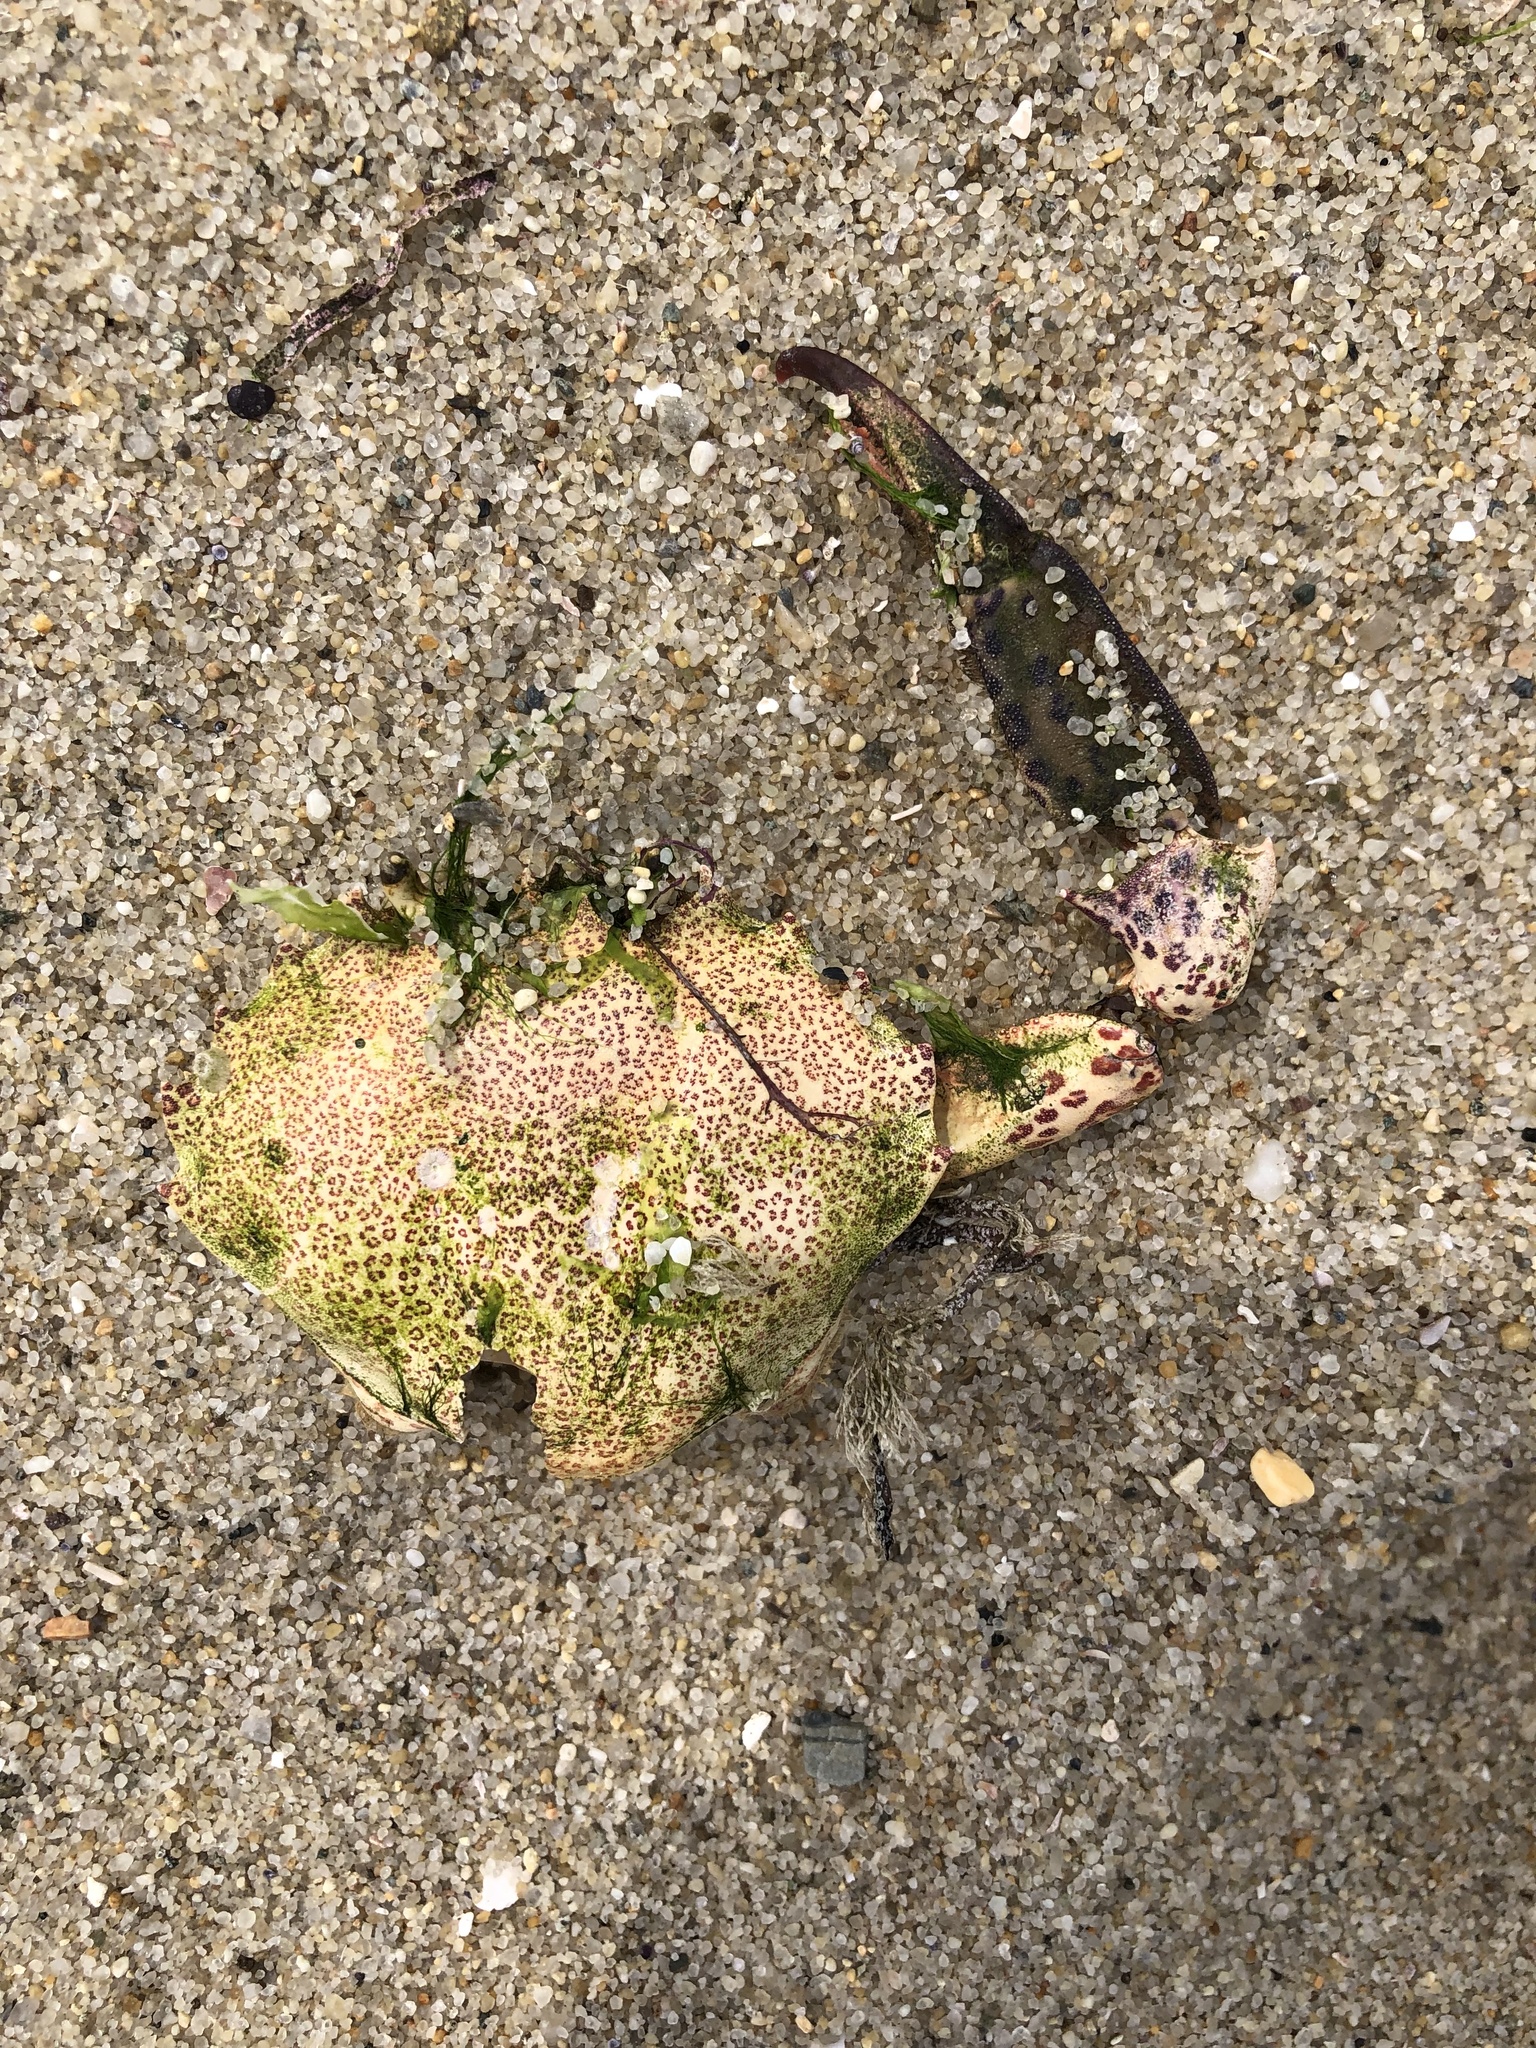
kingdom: Animalia
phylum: Arthropoda
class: Malacostraca
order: Decapoda
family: Ovalipidae
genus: Ovalipes
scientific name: Ovalipes ocellatus
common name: Lady crab
